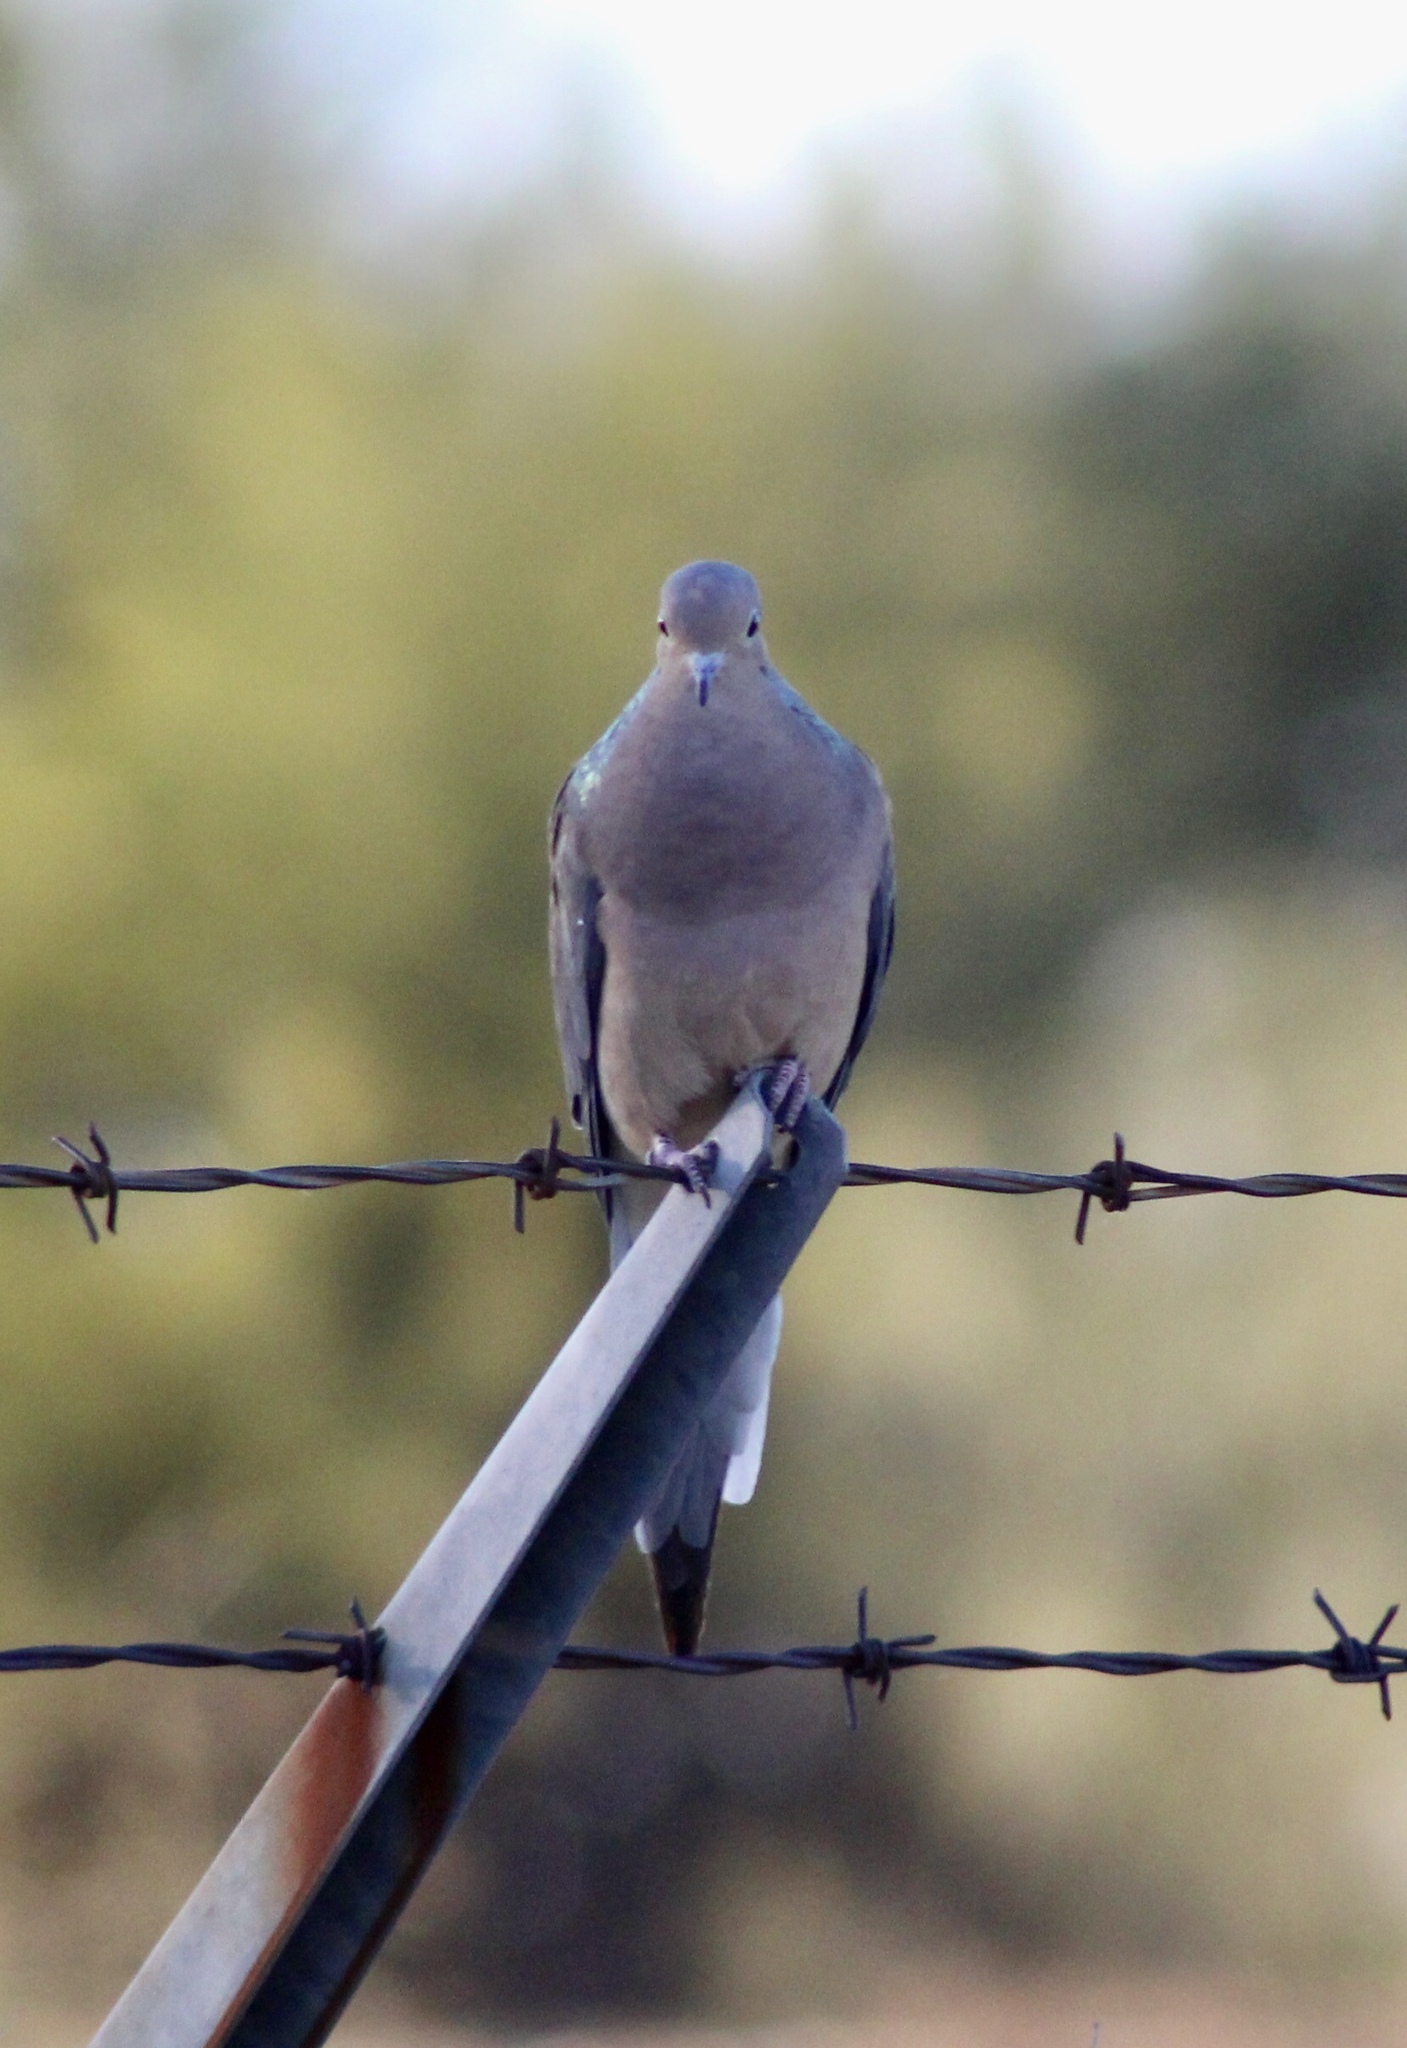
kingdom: Animalia
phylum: Chordata
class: Aves
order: Columbiformes
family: Columbidae
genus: Zenaida
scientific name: Zenaida macroura
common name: Mourning dove
